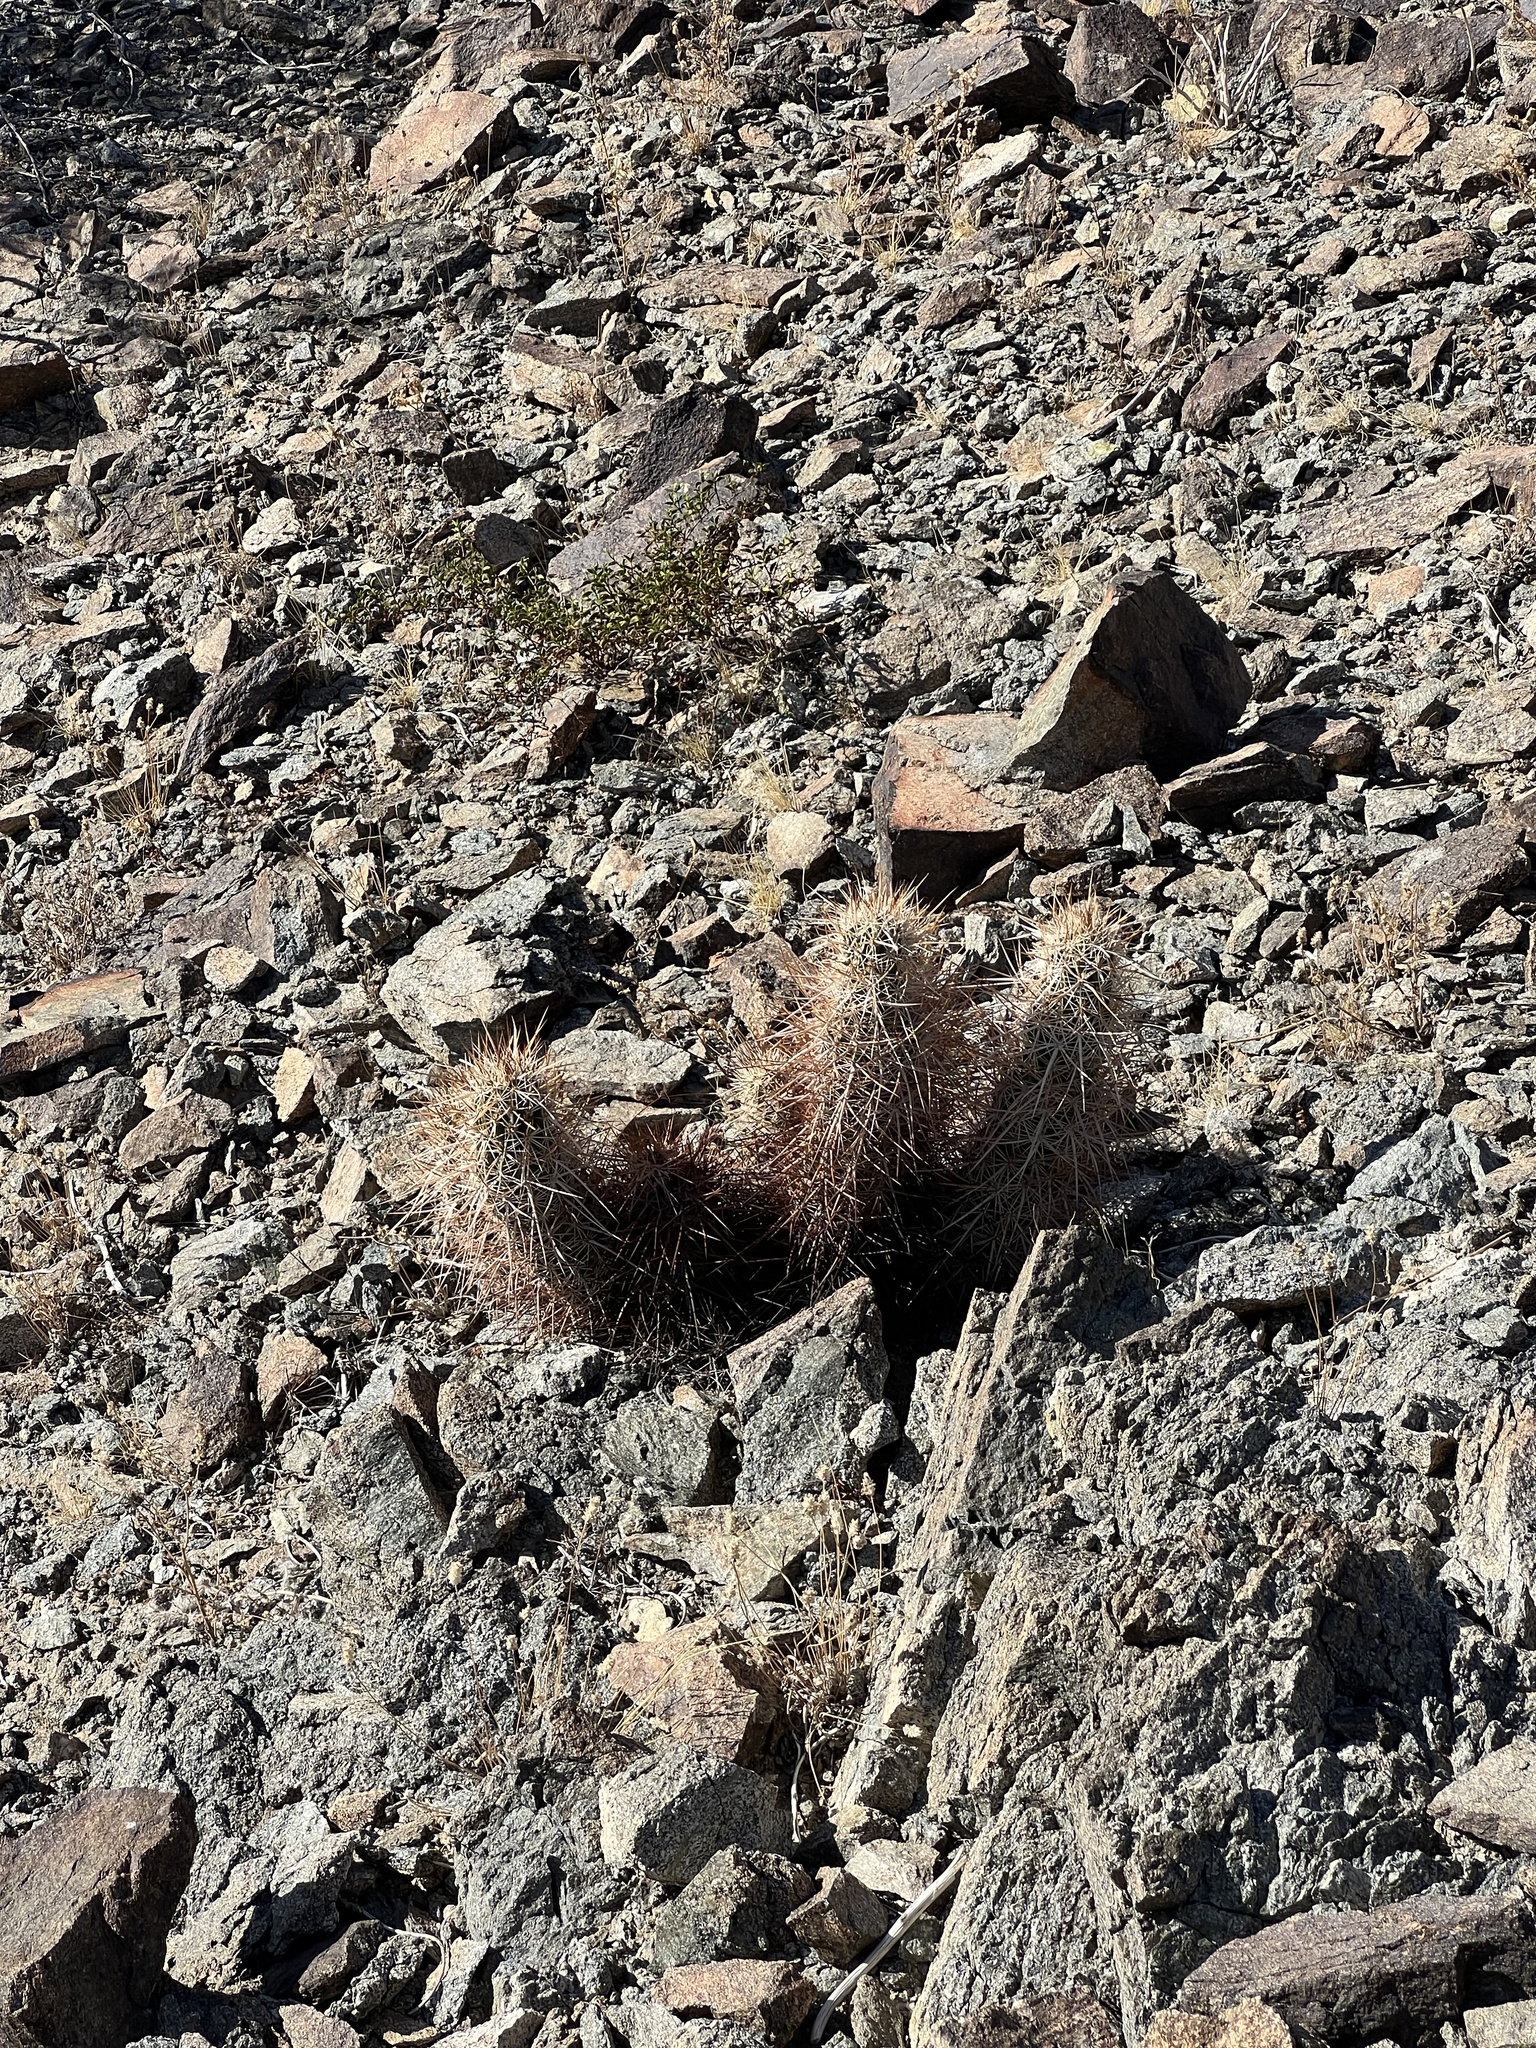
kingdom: Plantae
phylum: Tracheophyta
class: Magnoliopsida
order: Caryophyllales
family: Cactaceae
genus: Echinocereus
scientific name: Echinocereus engelmannii
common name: Engelmann's hedgehog cactus
